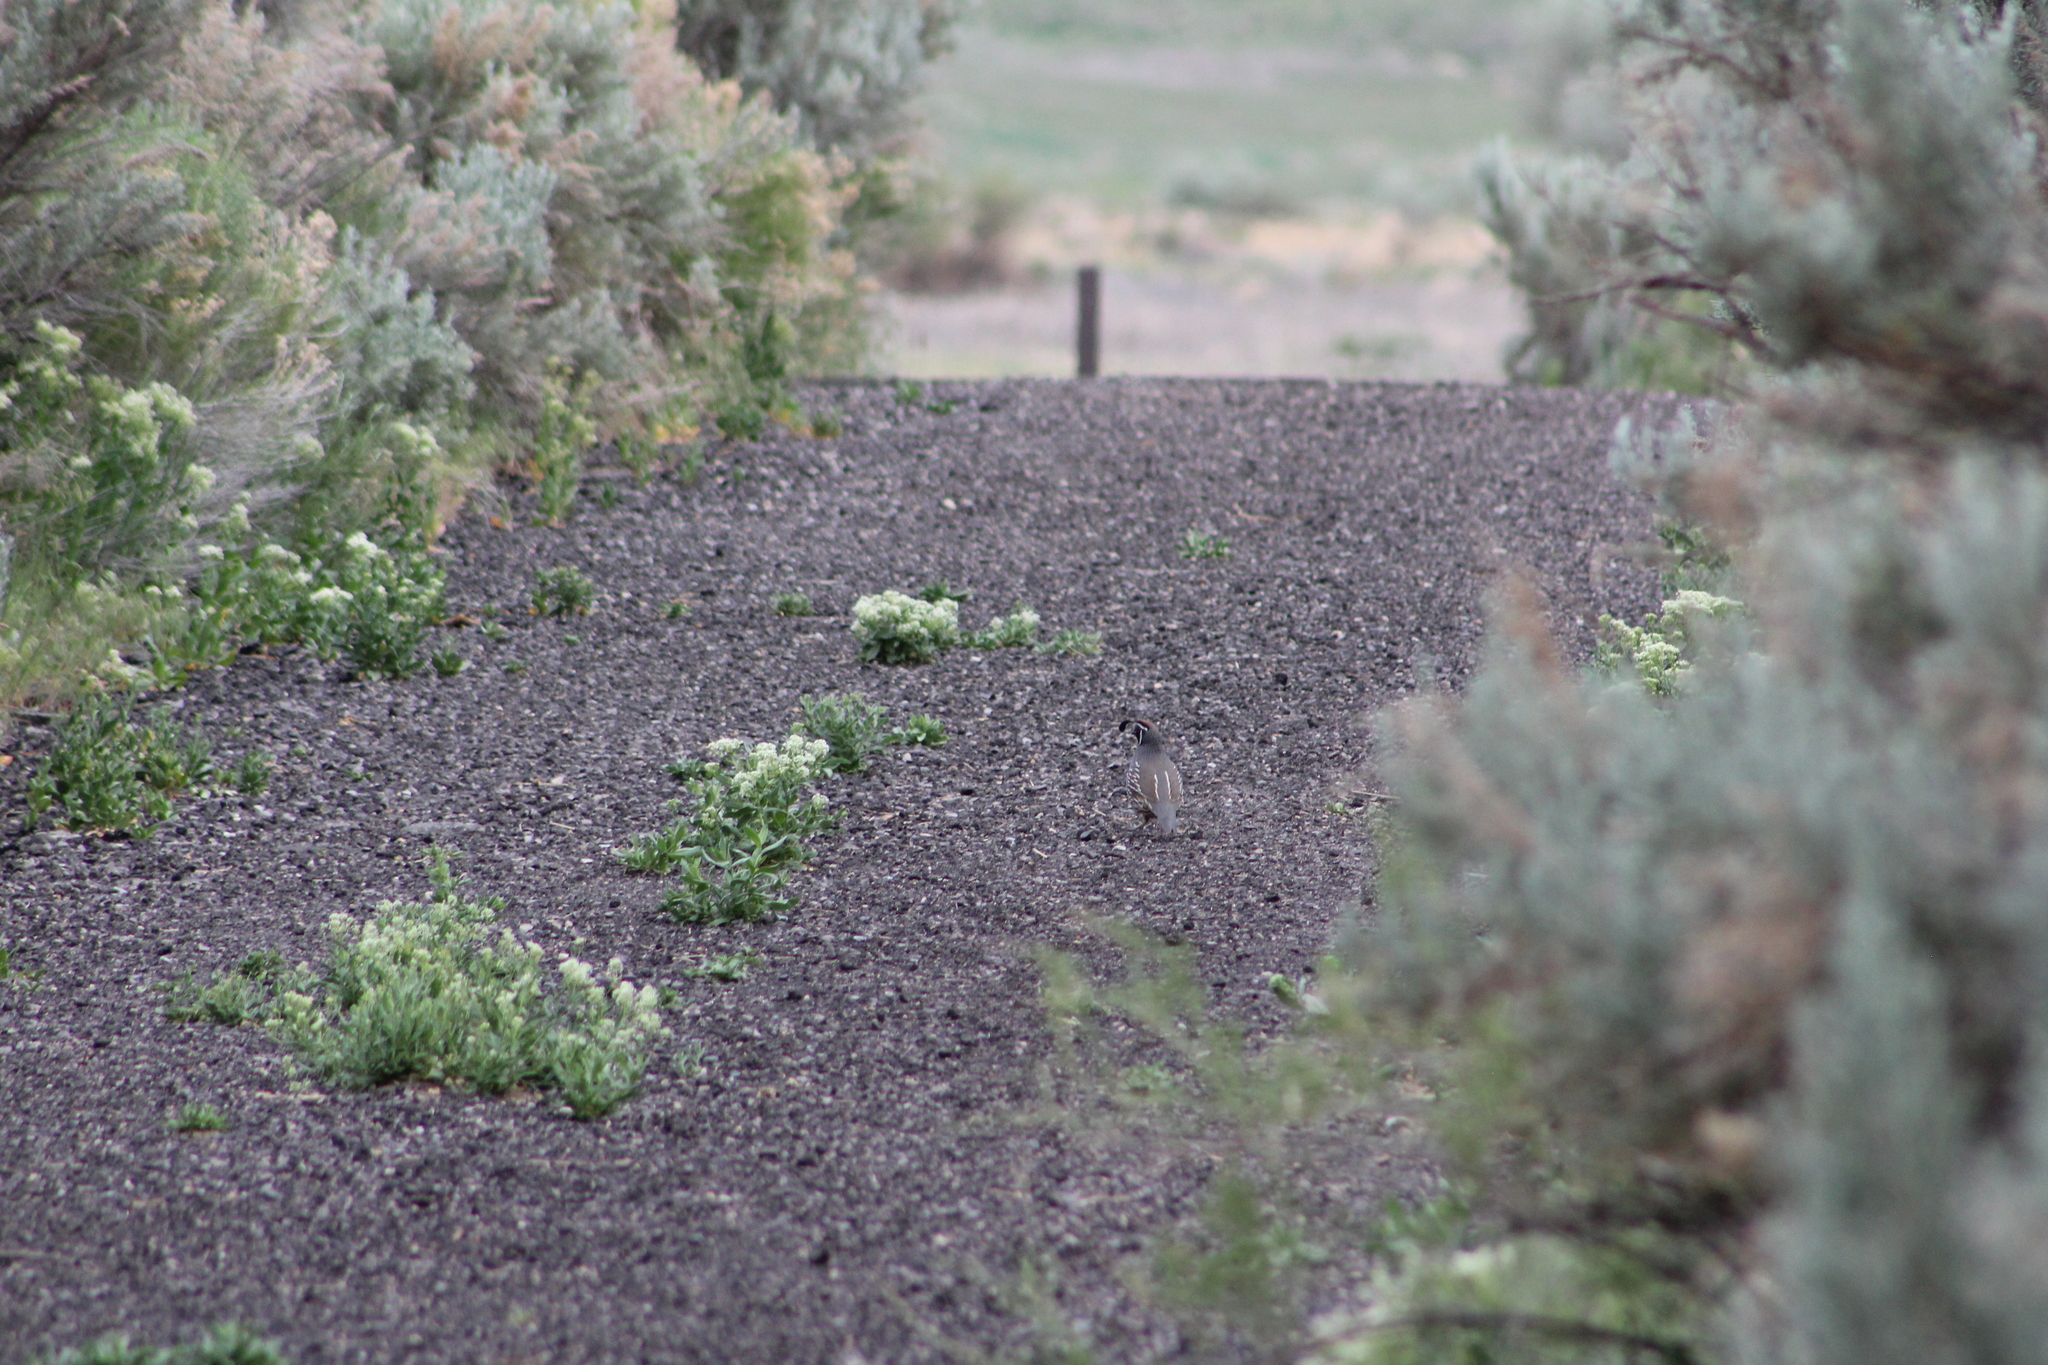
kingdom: Animalia
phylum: Chordata
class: Aves
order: Galliformes
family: Odontophoridae
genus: Callipepla
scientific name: Callipepla californica
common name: California quail
